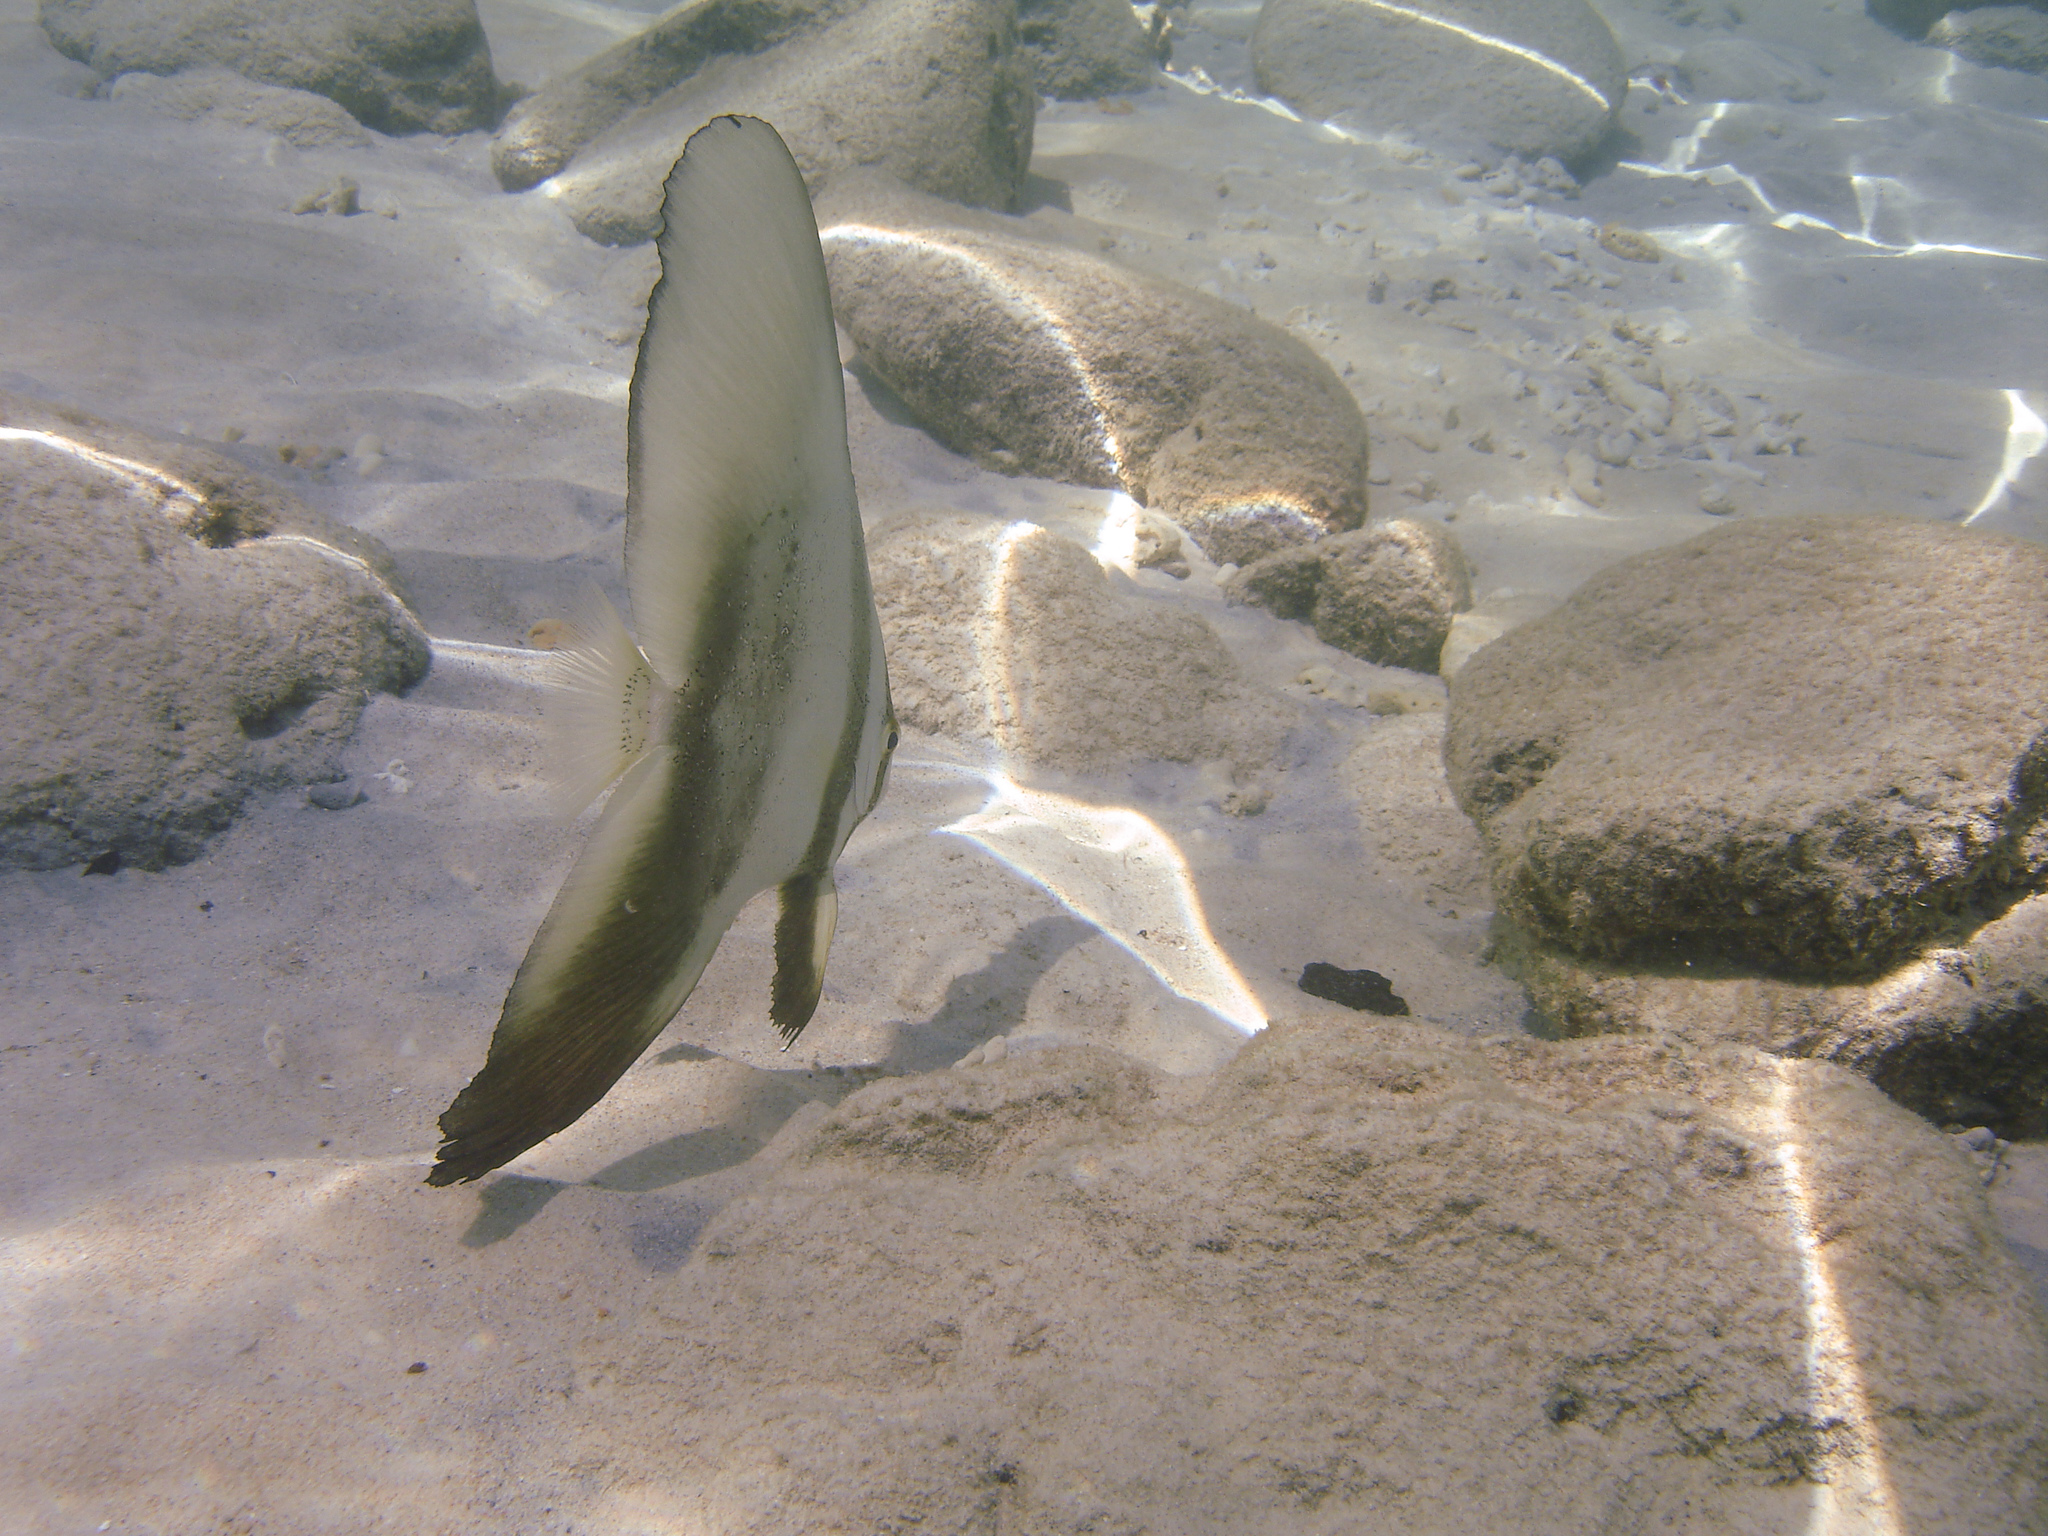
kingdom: Animalia
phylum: Chordata
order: Perciformes
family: Ephippidae
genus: Platax
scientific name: Platax boersii
